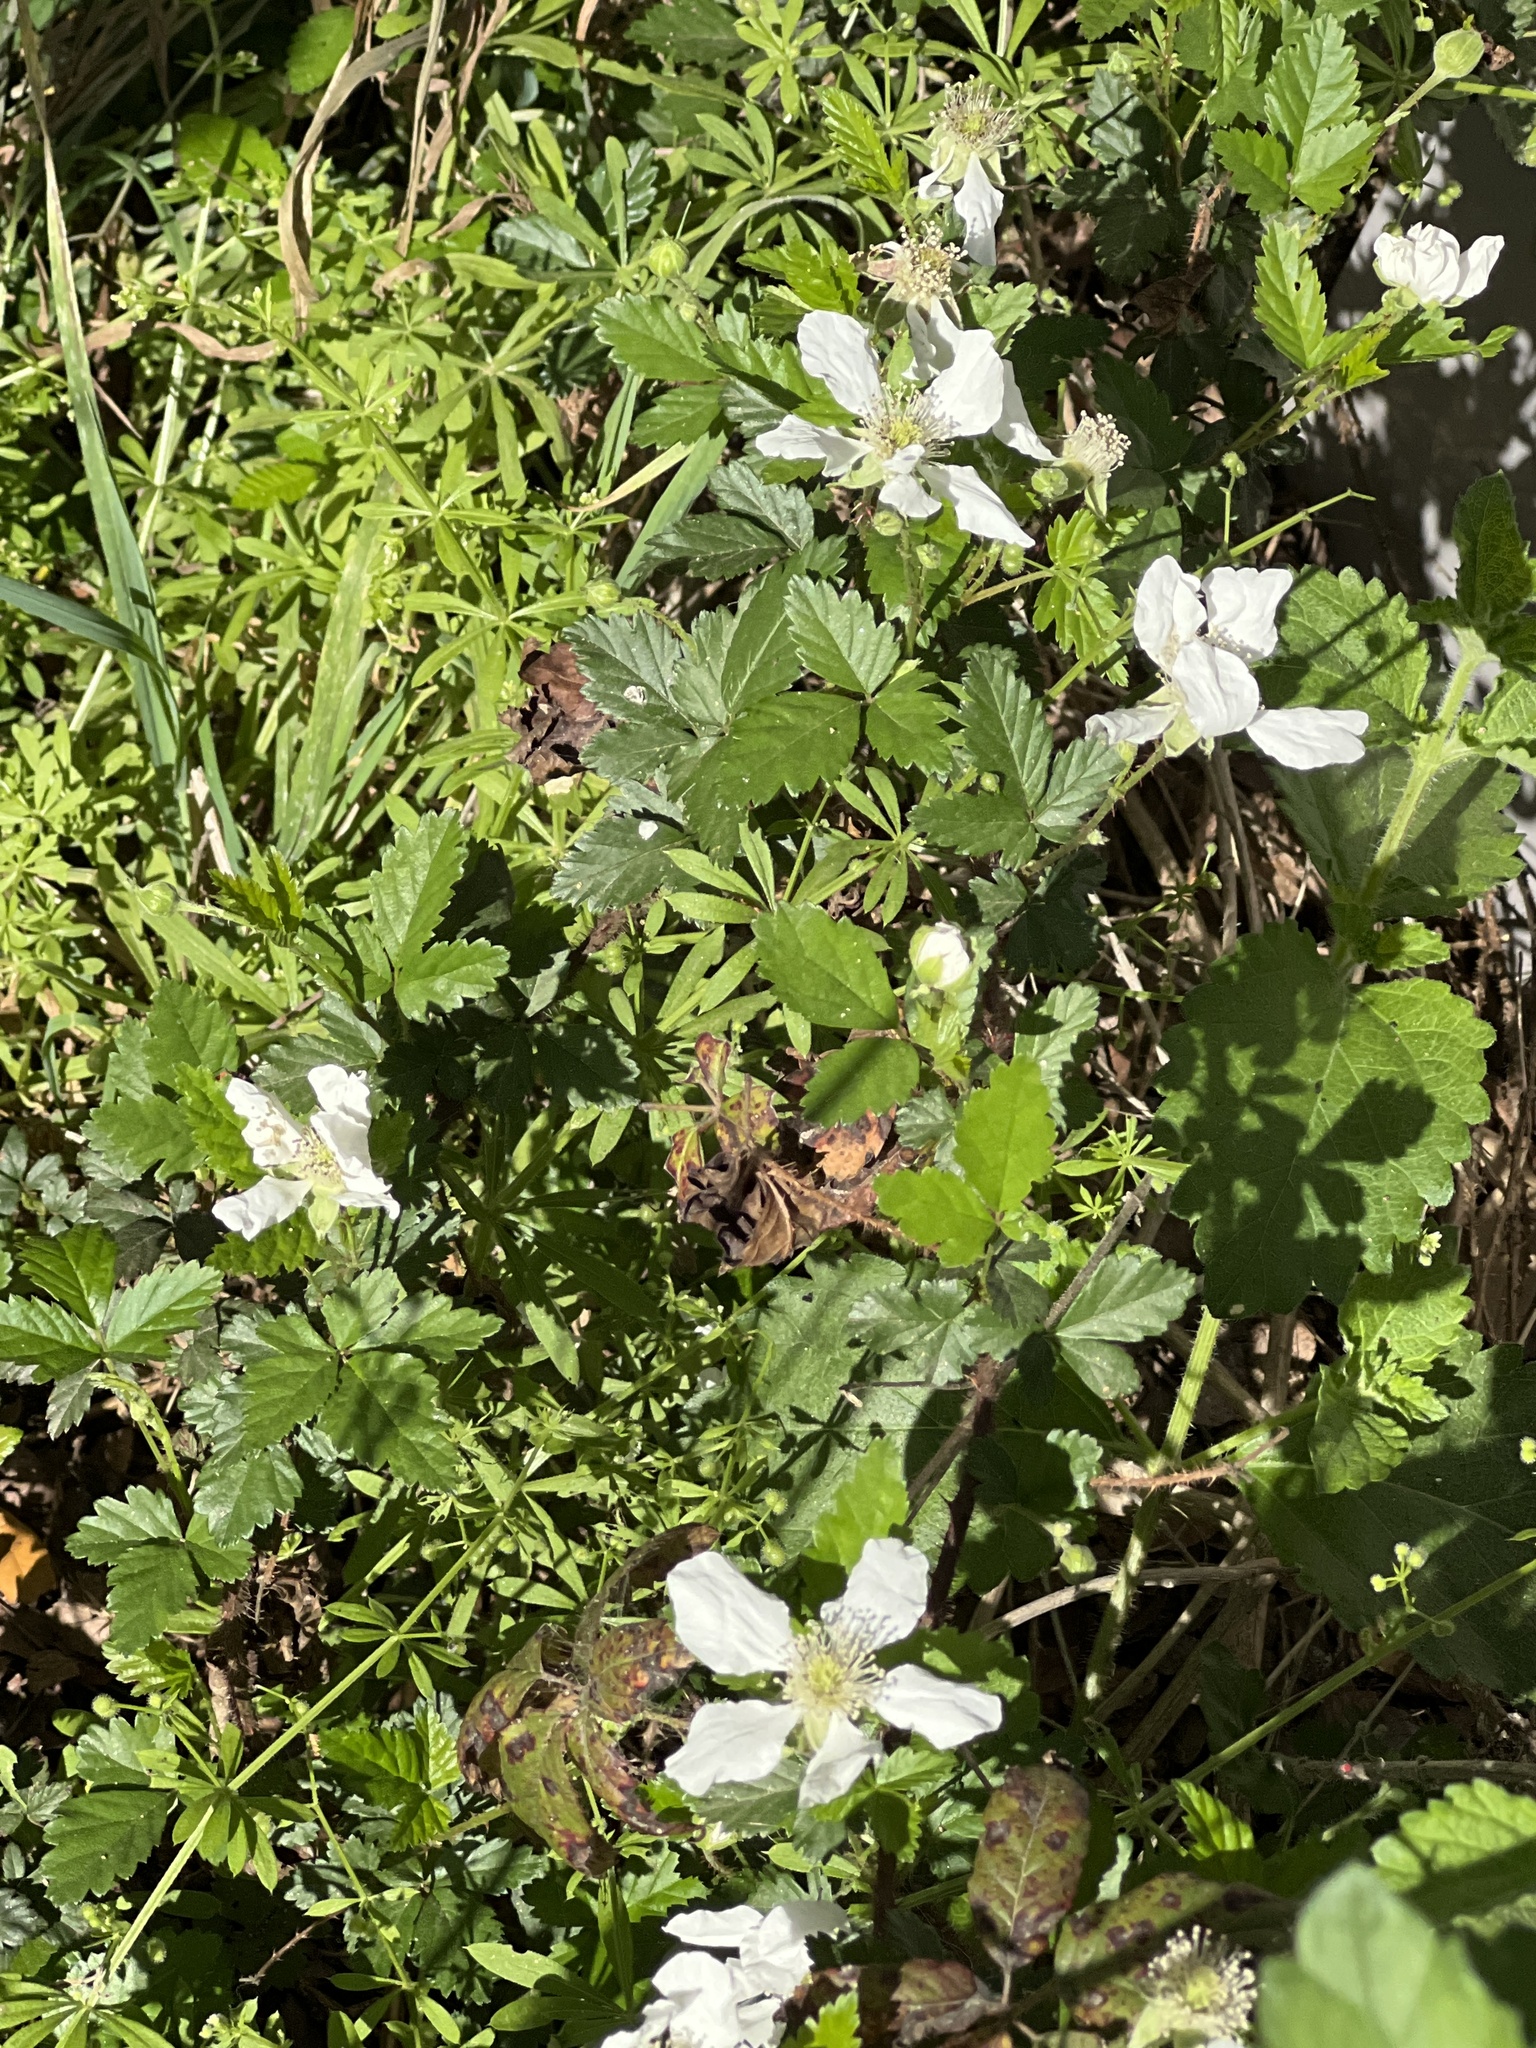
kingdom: Plantae
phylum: Tracheophyta
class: Magnoliopsida
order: Rosales
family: Rosaceae
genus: Rubus
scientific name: Rubus trivialis
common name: Southern dewberry
